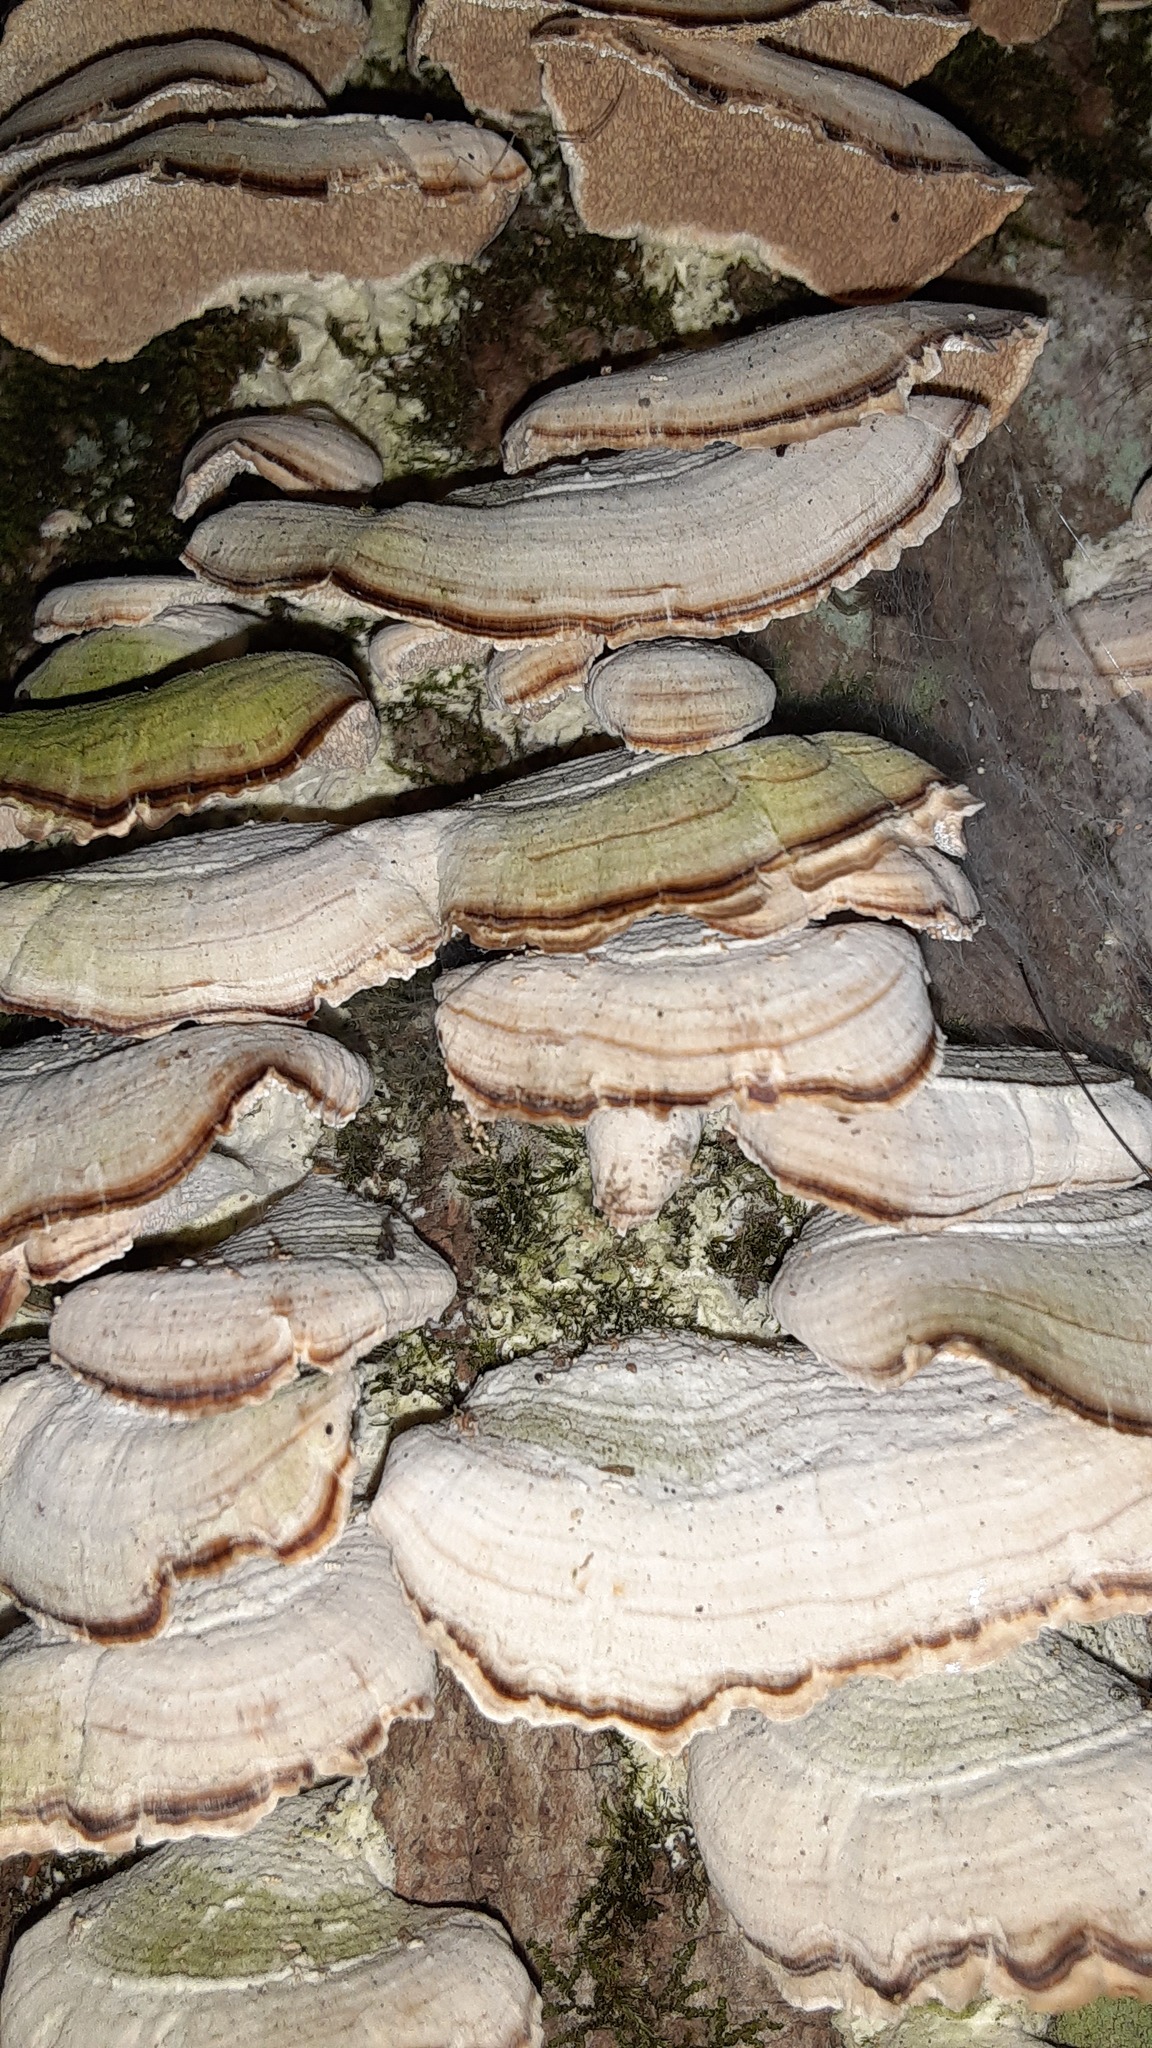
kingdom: Fungi
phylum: Basidiomycota
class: Agaricomycetes
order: Hymenochaetales
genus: Trichaptum
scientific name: Trichaptum biforme
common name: Violet-toothed polypore
